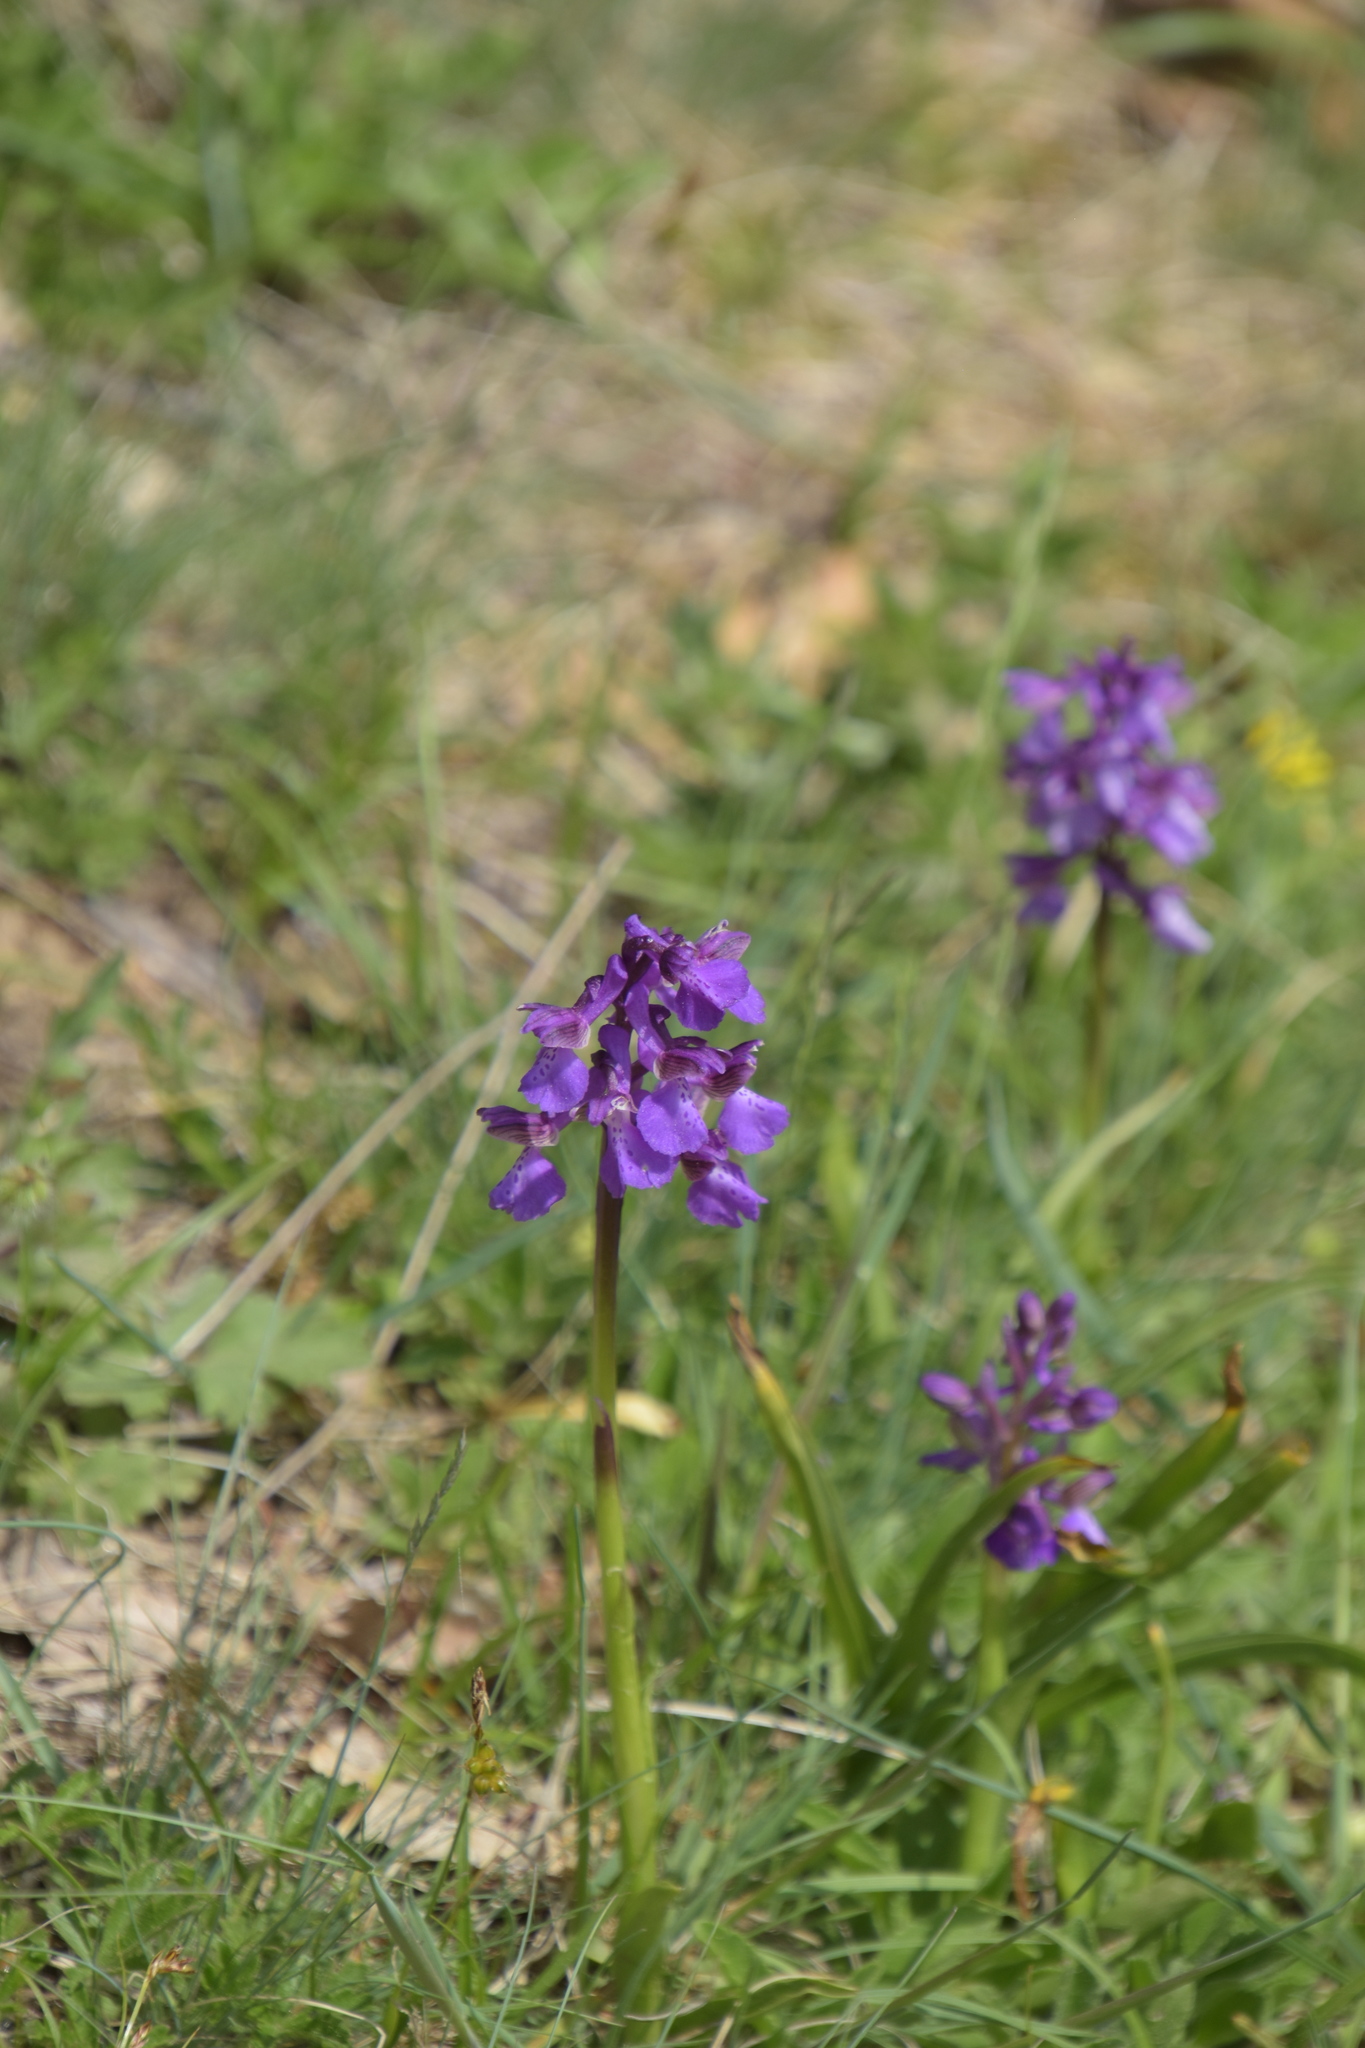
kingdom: Plantae
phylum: Tracheophyta
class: Liliopsida
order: Asparagales
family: Orchidaceae
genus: Anacamptis
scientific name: Anacamptis morio
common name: Green-winged orchid
